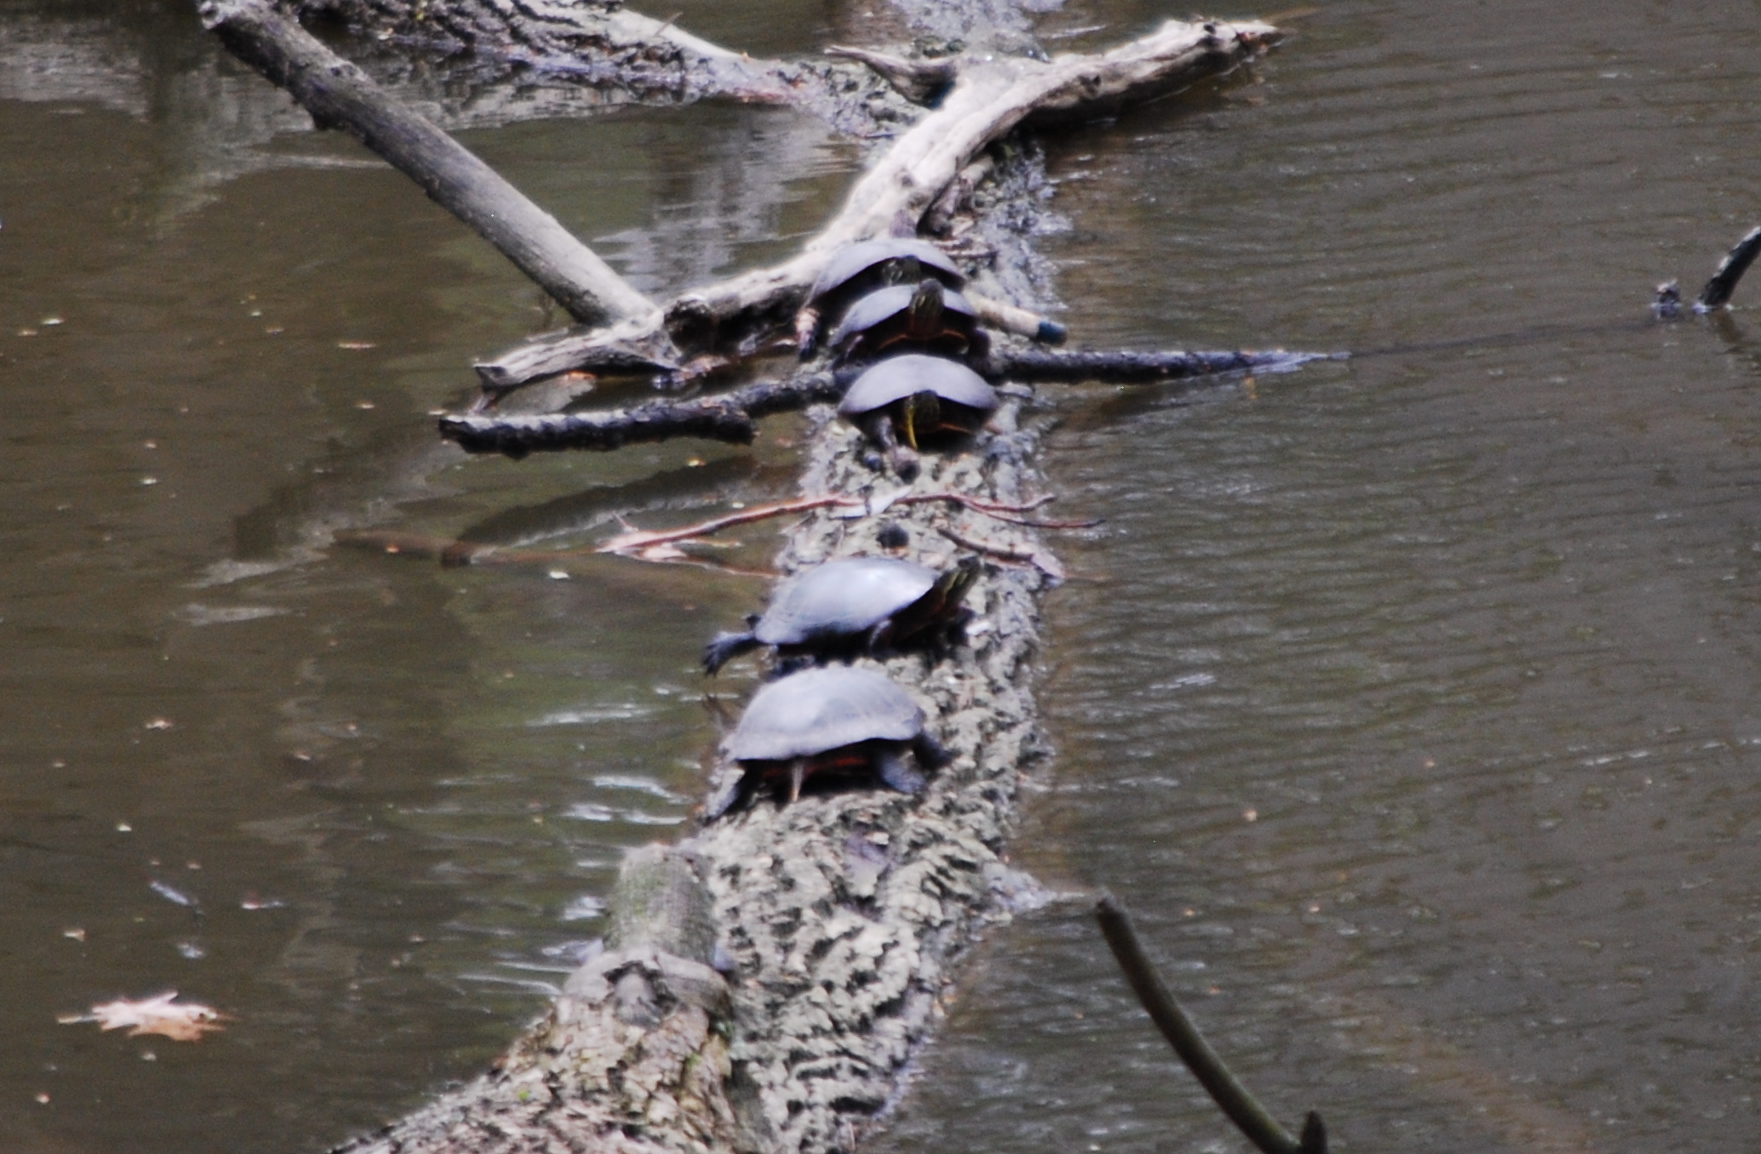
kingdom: Animalia
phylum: Chordata
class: Testudines
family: Emydidae
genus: Chrysemys
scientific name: Chrysemys picta
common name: Painted turtle
